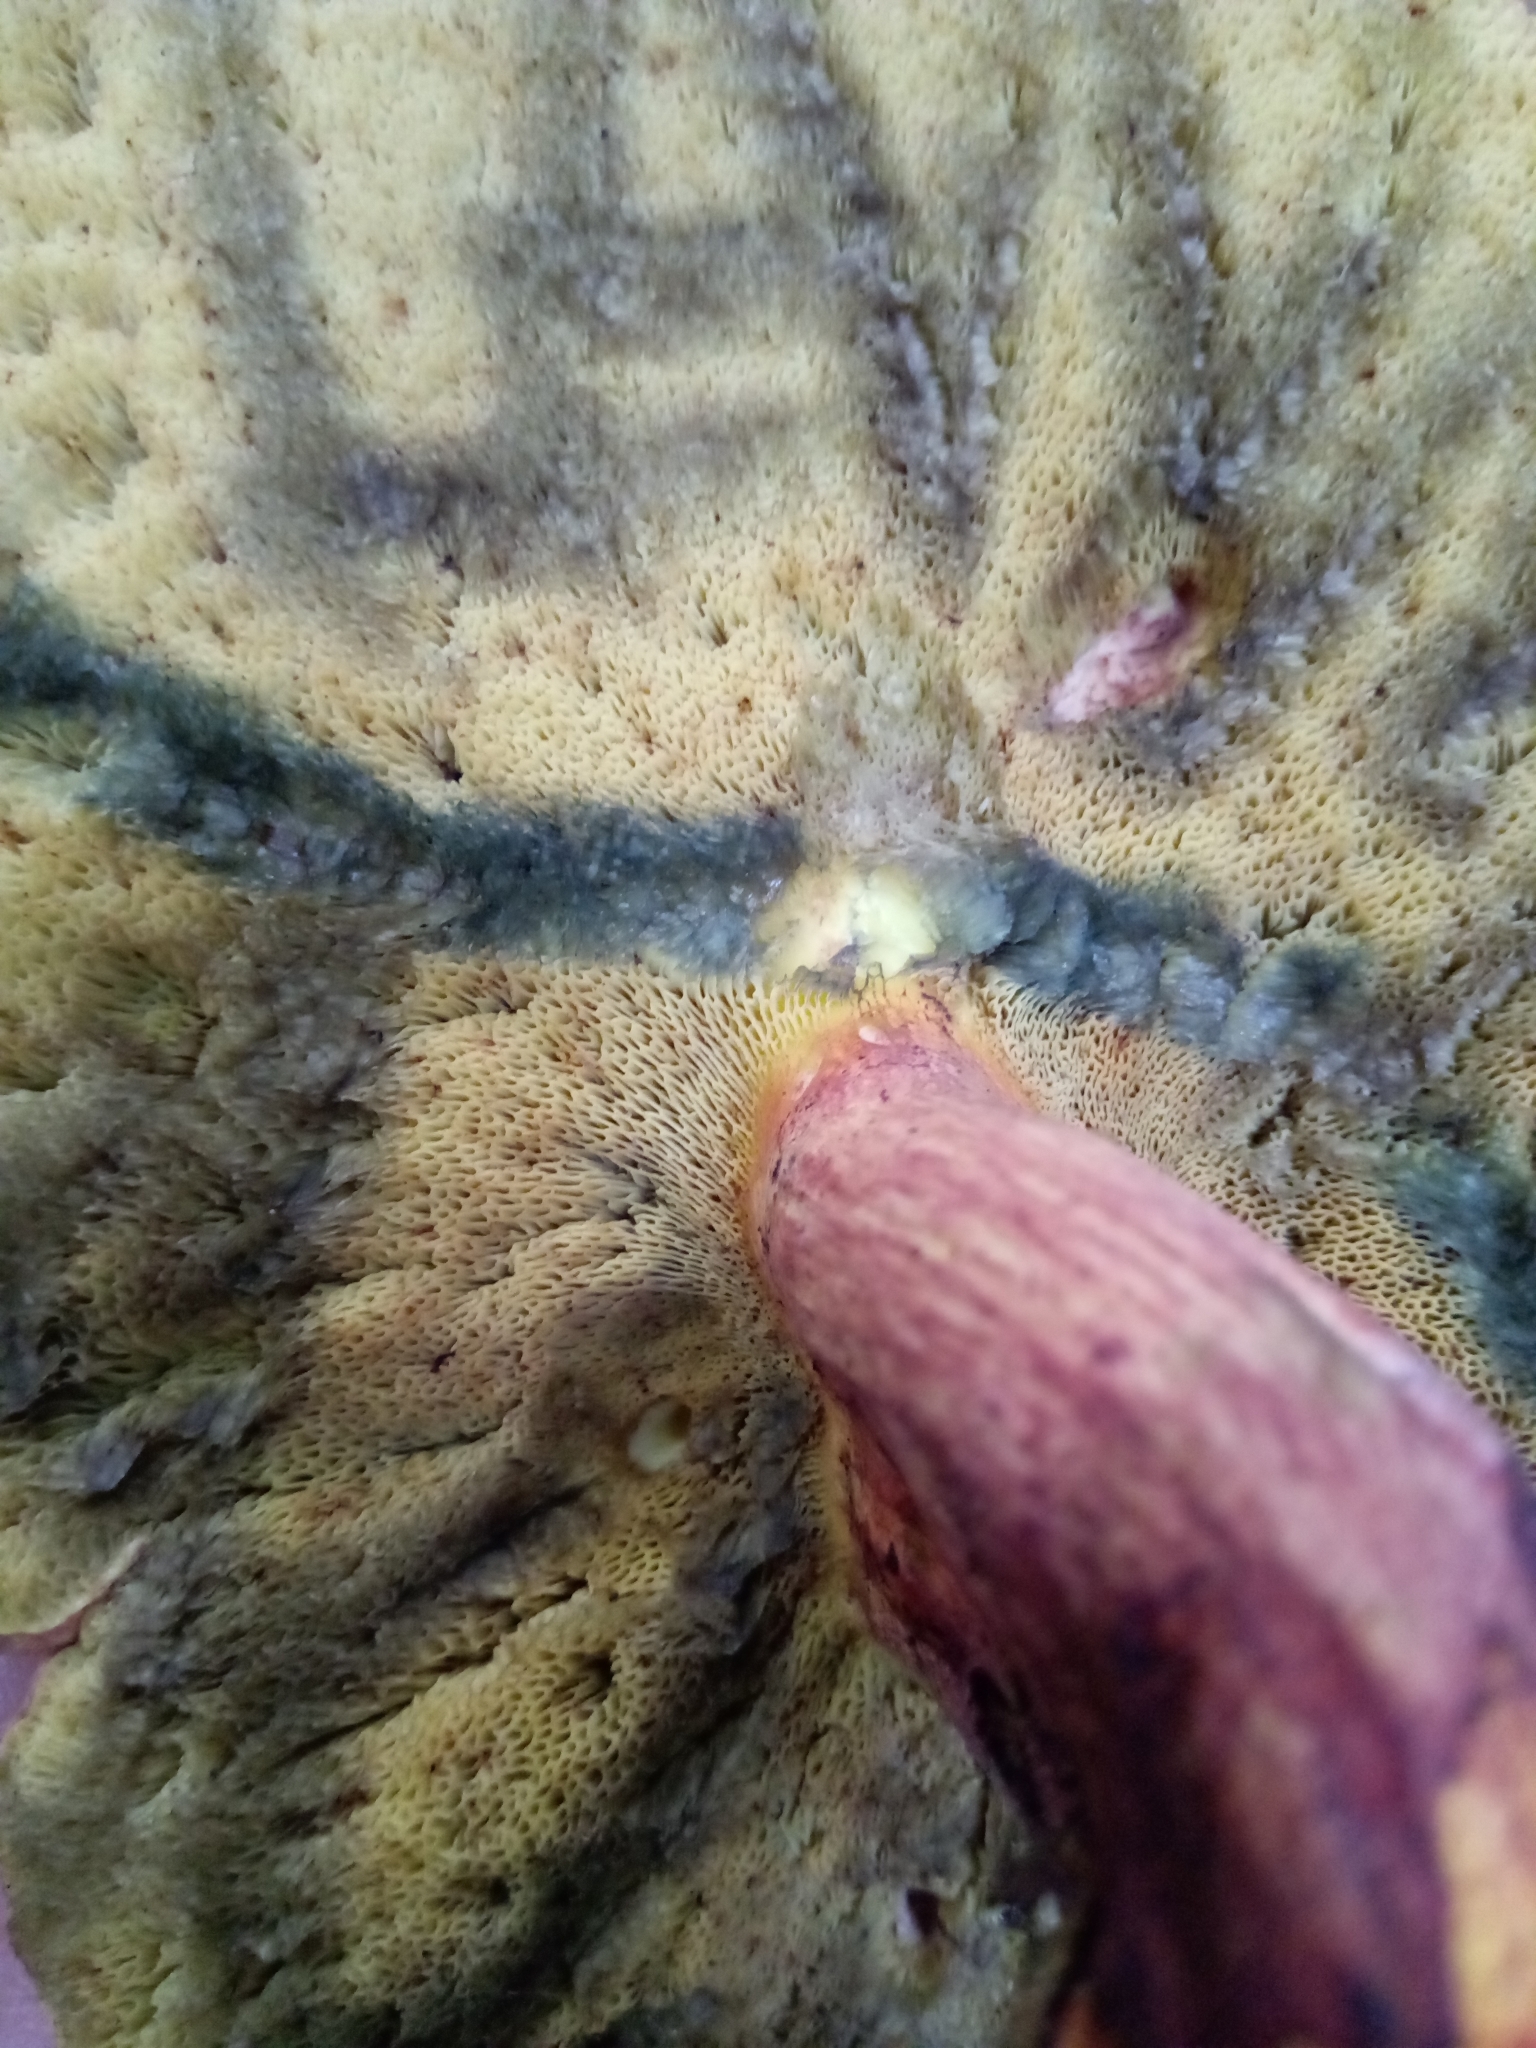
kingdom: Fungi
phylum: Basidiomycota
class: Agaricomycetes
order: Boletales
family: Boletaceae
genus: Lanmaoa
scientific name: Lanmaoa pseudosensibilis
